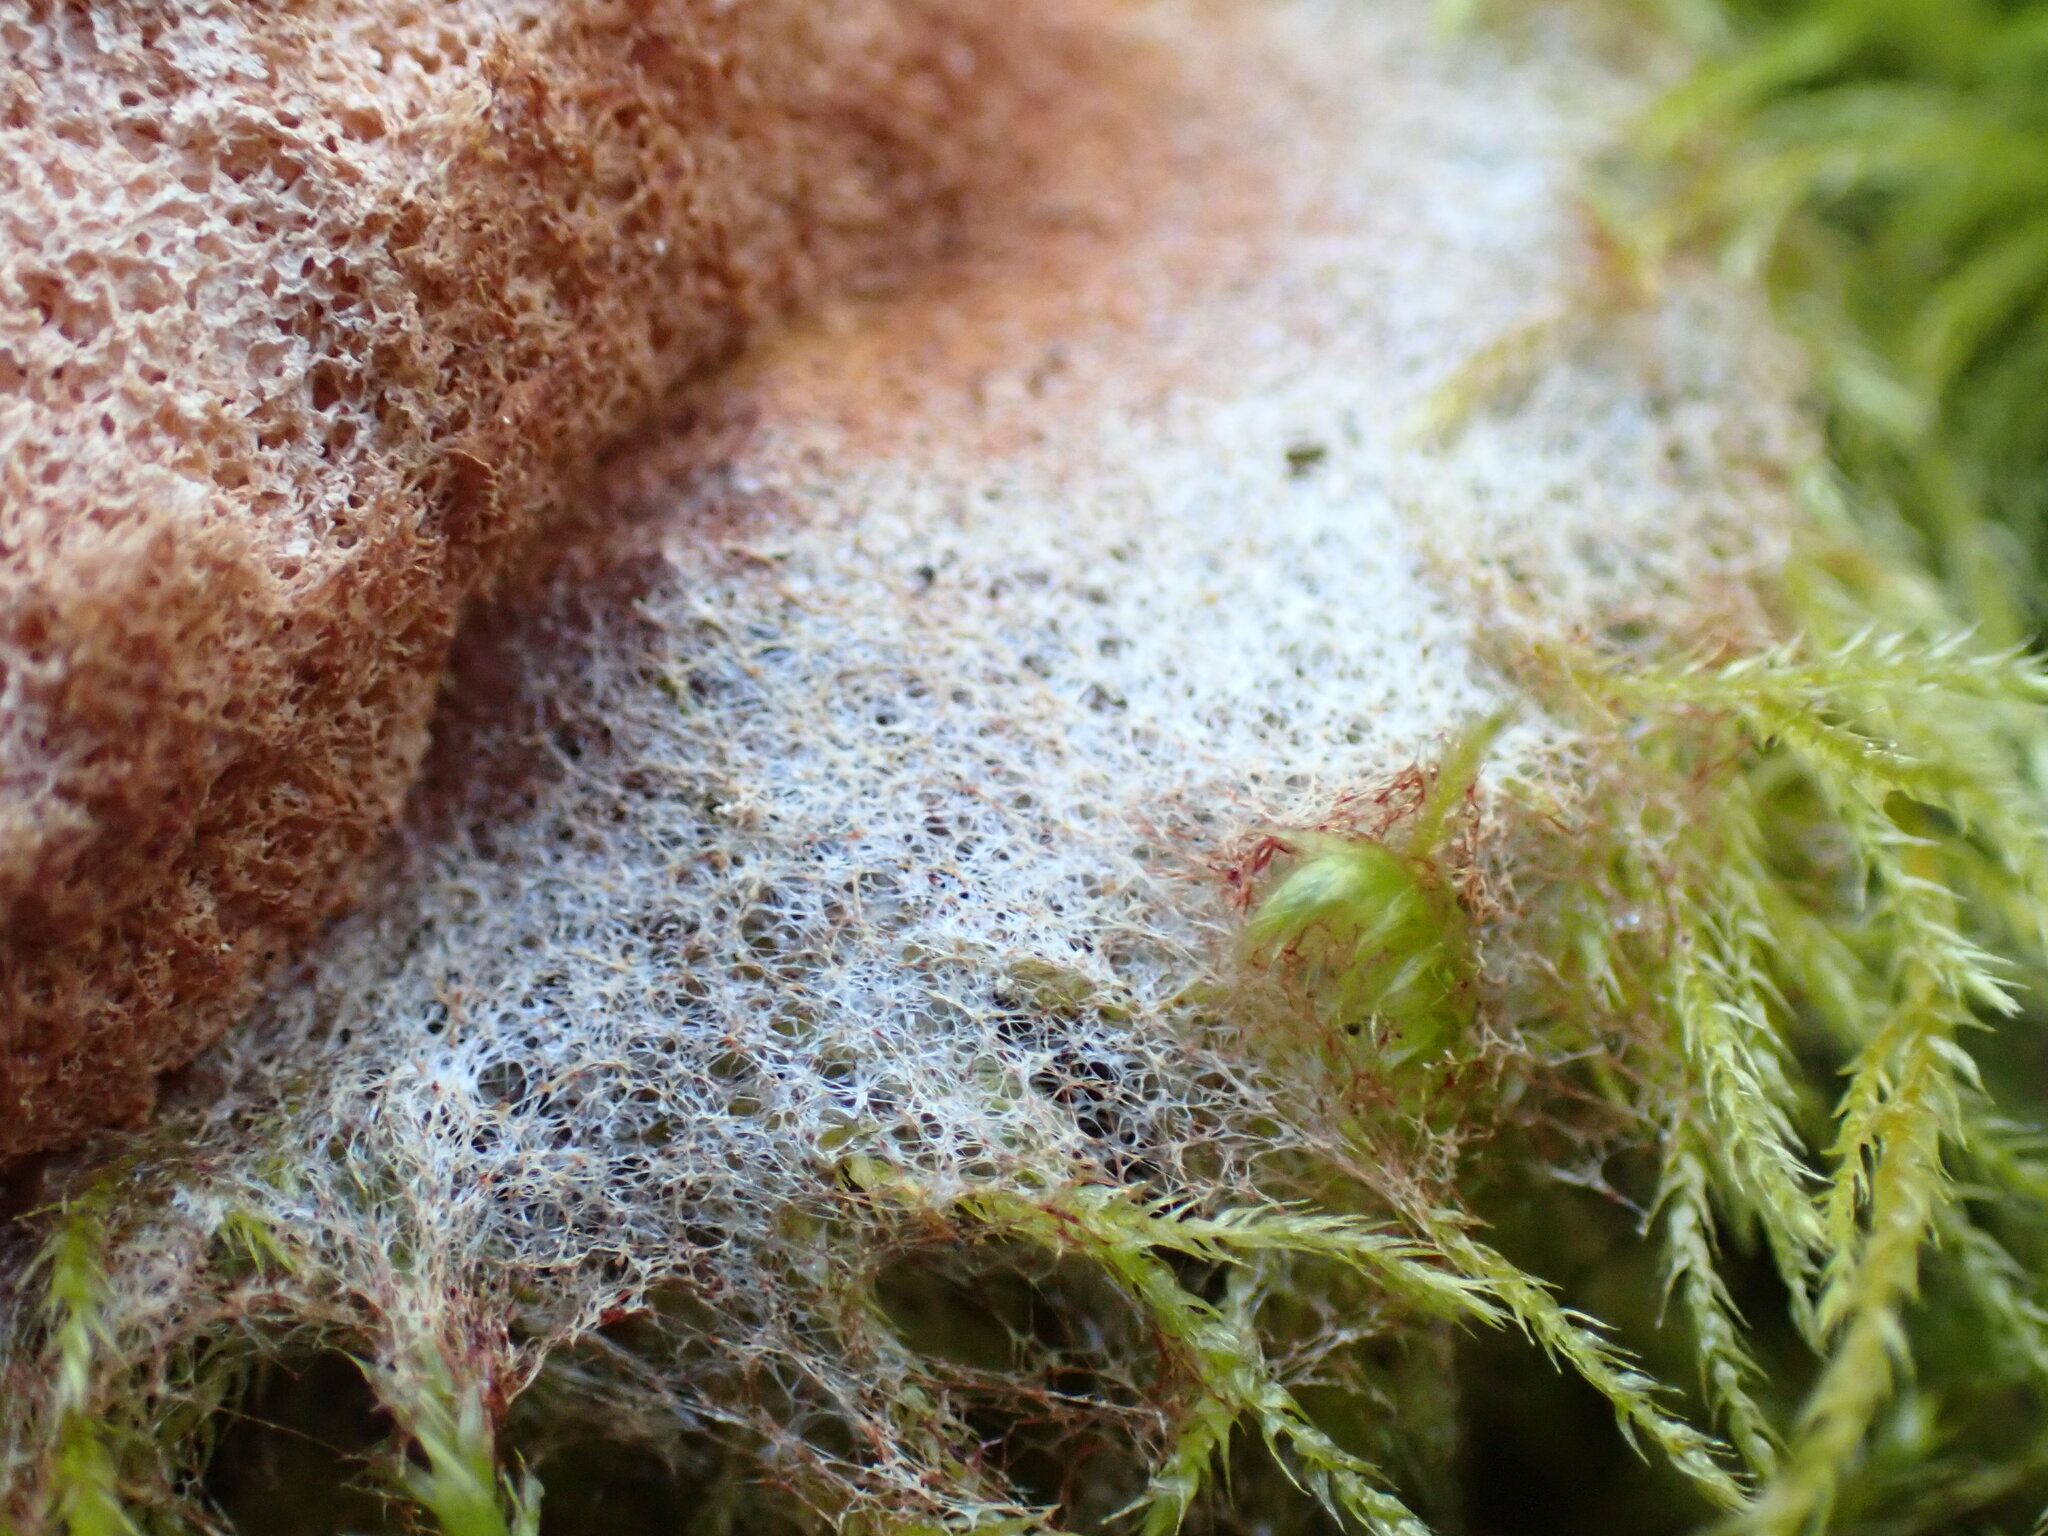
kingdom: Protozoa
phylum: Mycetozoa
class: Myxomycetes
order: Physarales
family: Physaraceae
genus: Fuligo
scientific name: Fuligo septica
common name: Dog vomit slime mold
